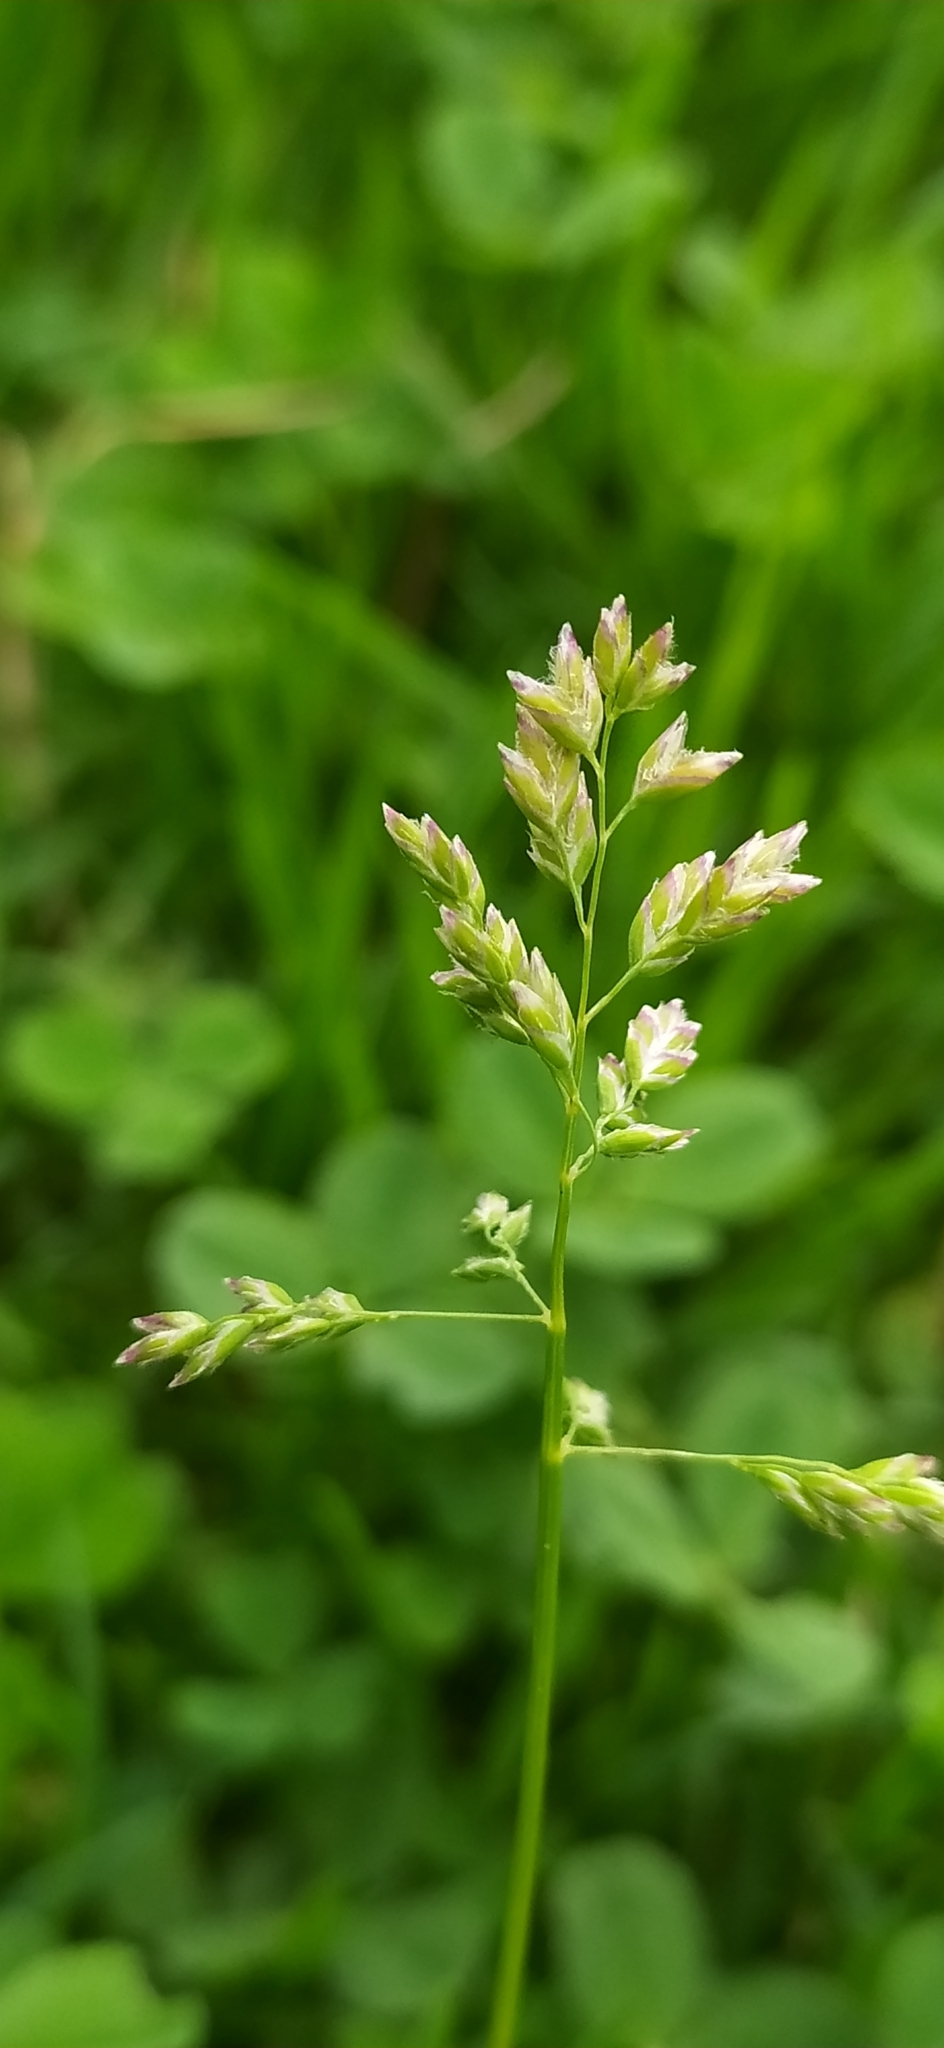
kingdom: Plantae
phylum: Tracheophyta
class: Liliopsida
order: Poales
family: Poaceae
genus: Poa
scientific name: Poa annua
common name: Annual bluegrass
